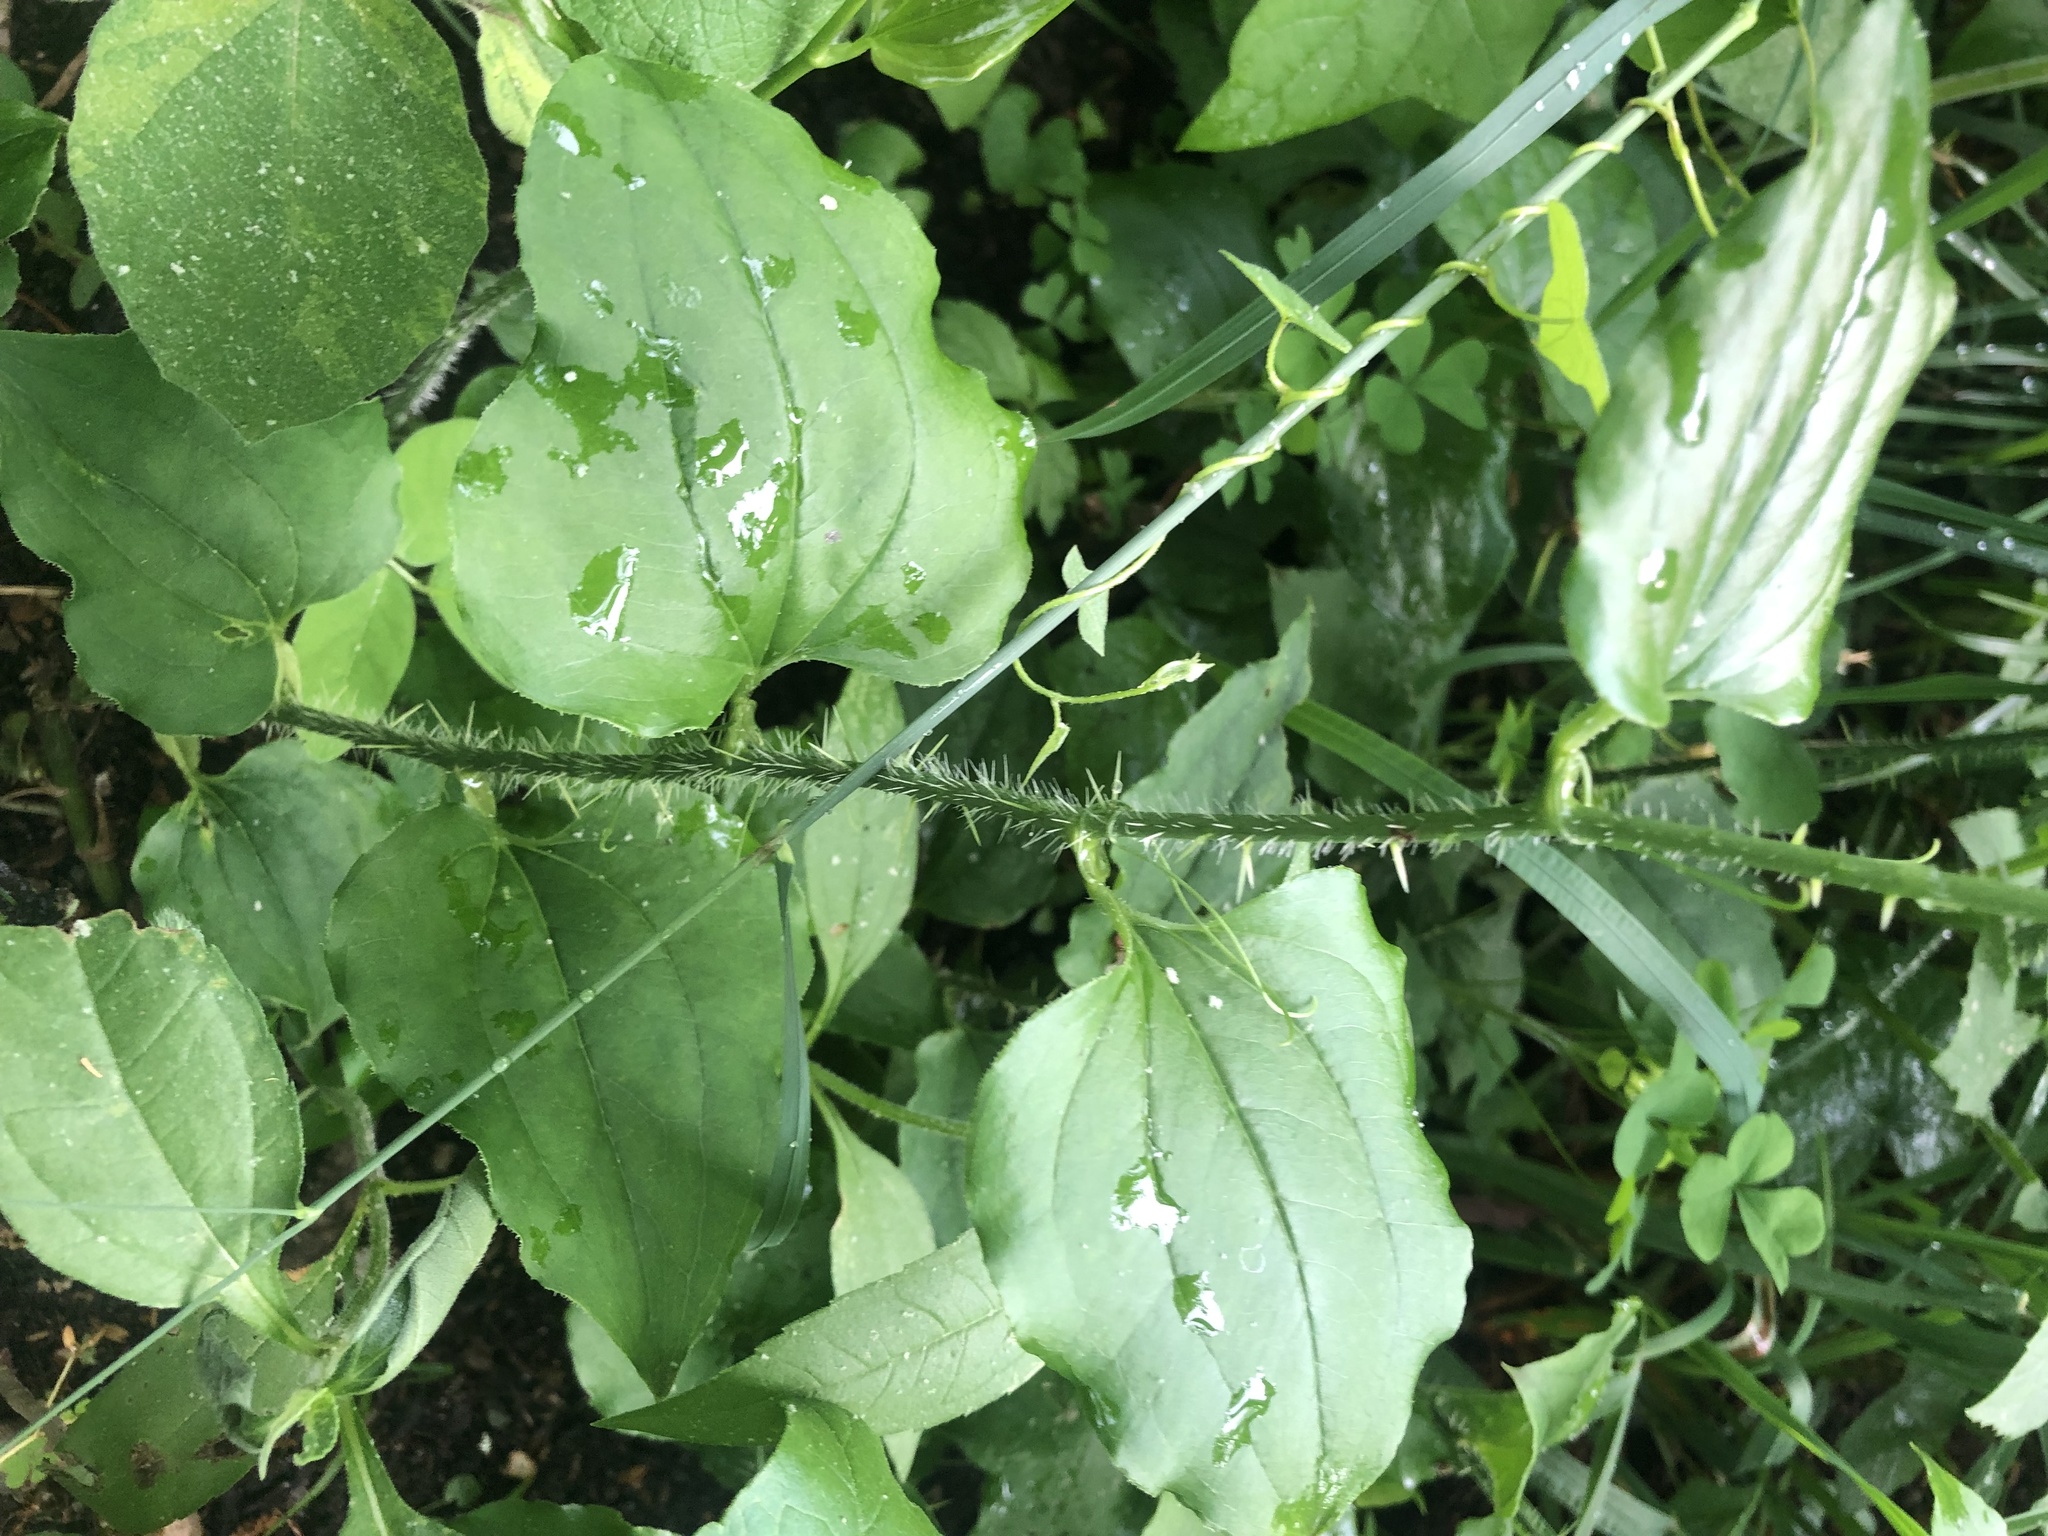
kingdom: Plantae
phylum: Tracheophyta
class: Liliopsida
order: Liliales
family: Smilacaceae
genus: Smilax
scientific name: Smilax tamnoides
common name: Hellfetter
